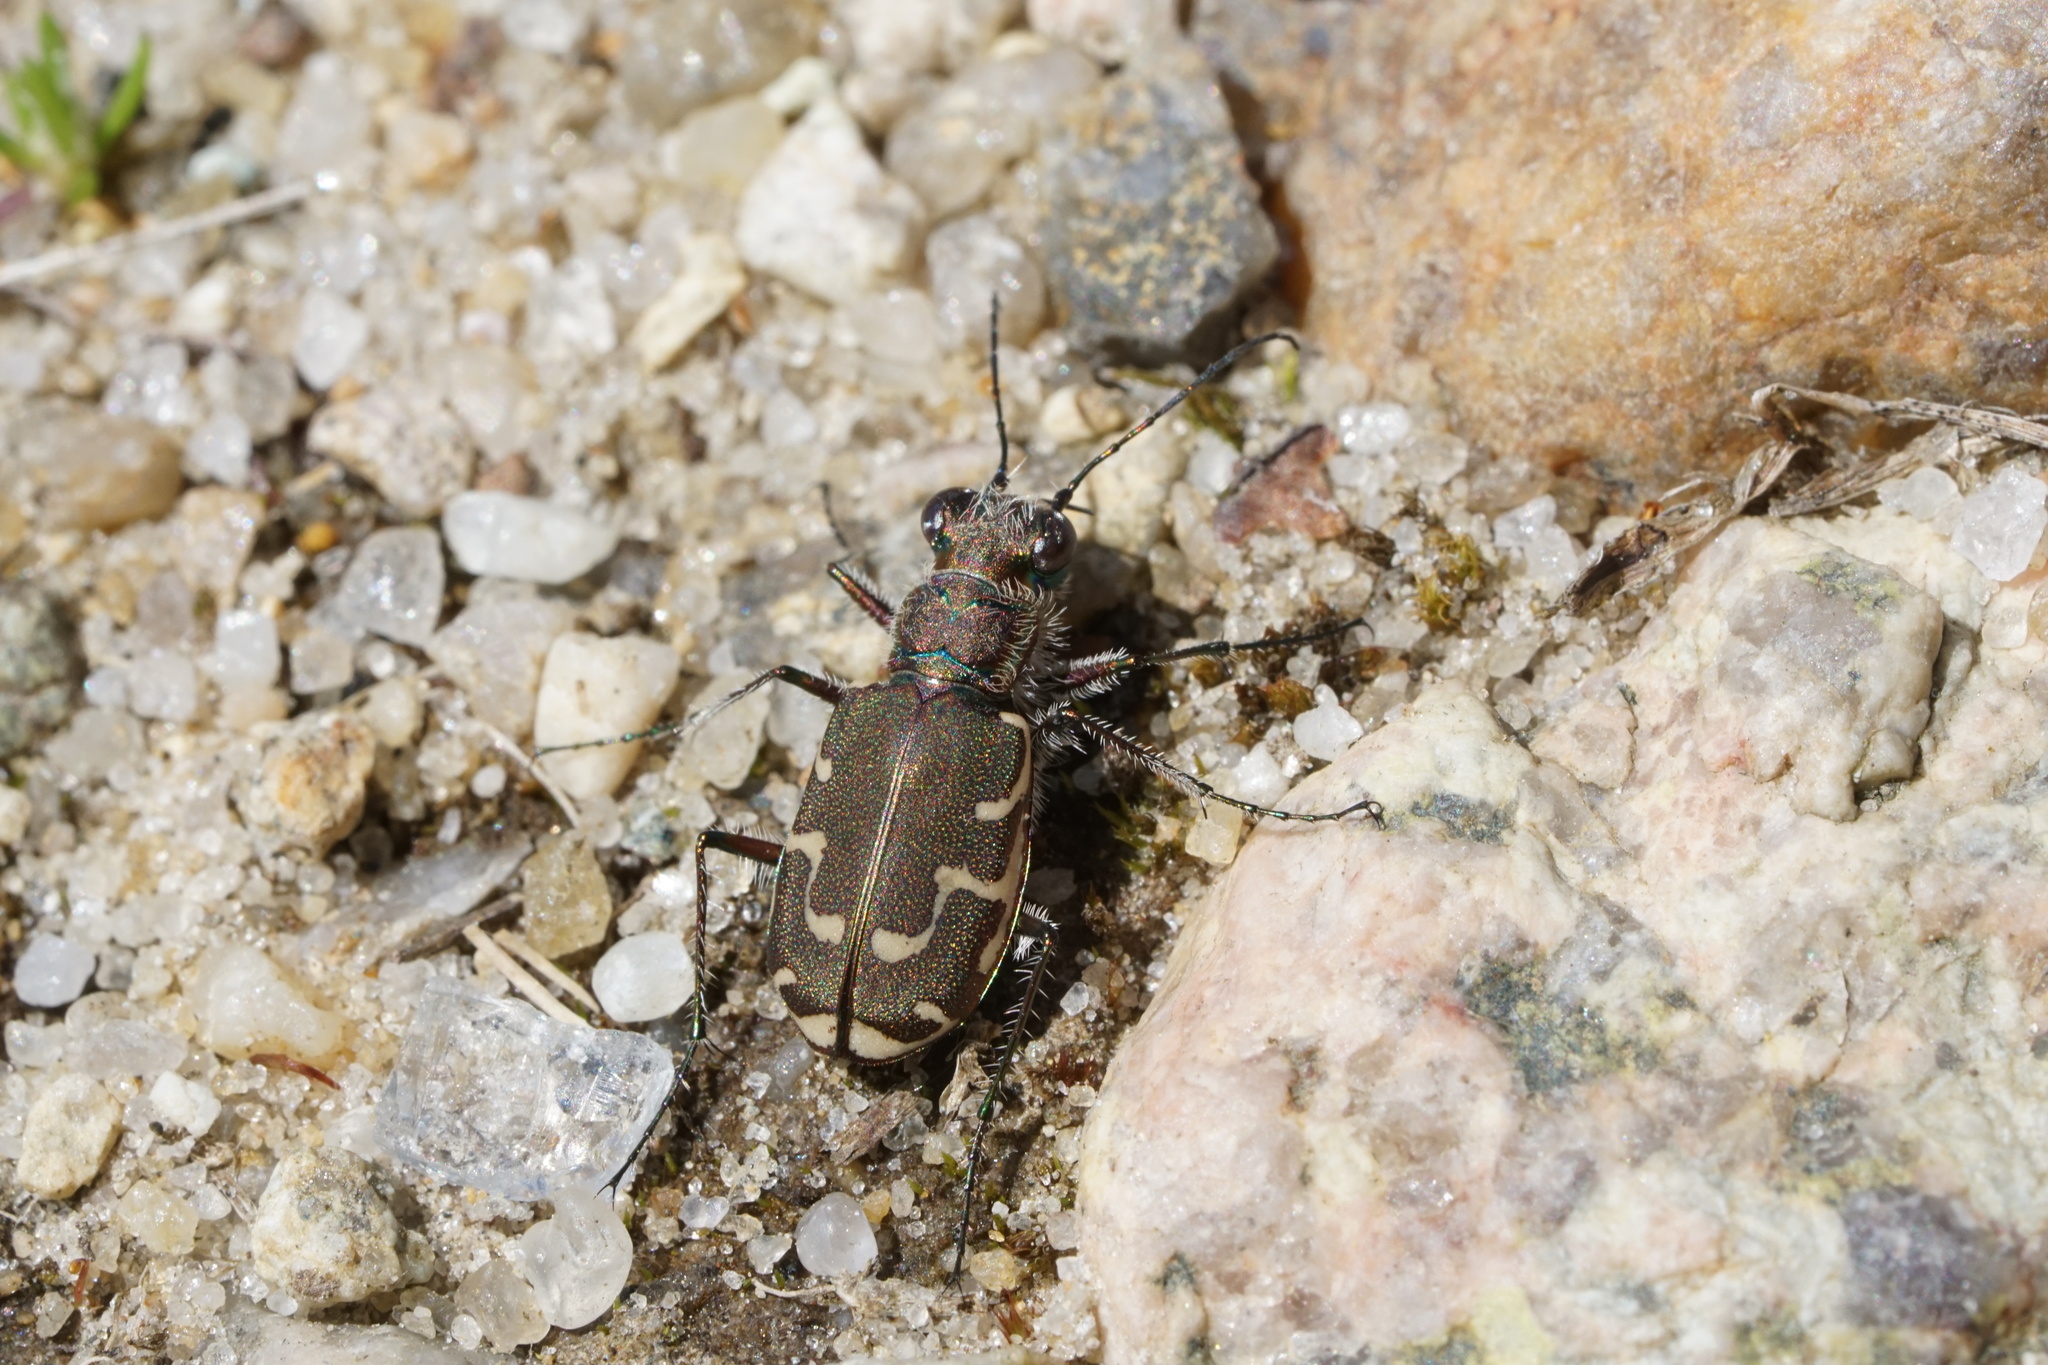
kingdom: Animalia
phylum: Arthropoda
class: Insecta
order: Coleoptera
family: Carabidae
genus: Cicindela
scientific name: Cicindela repanda
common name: Bronzed tiger beetle
